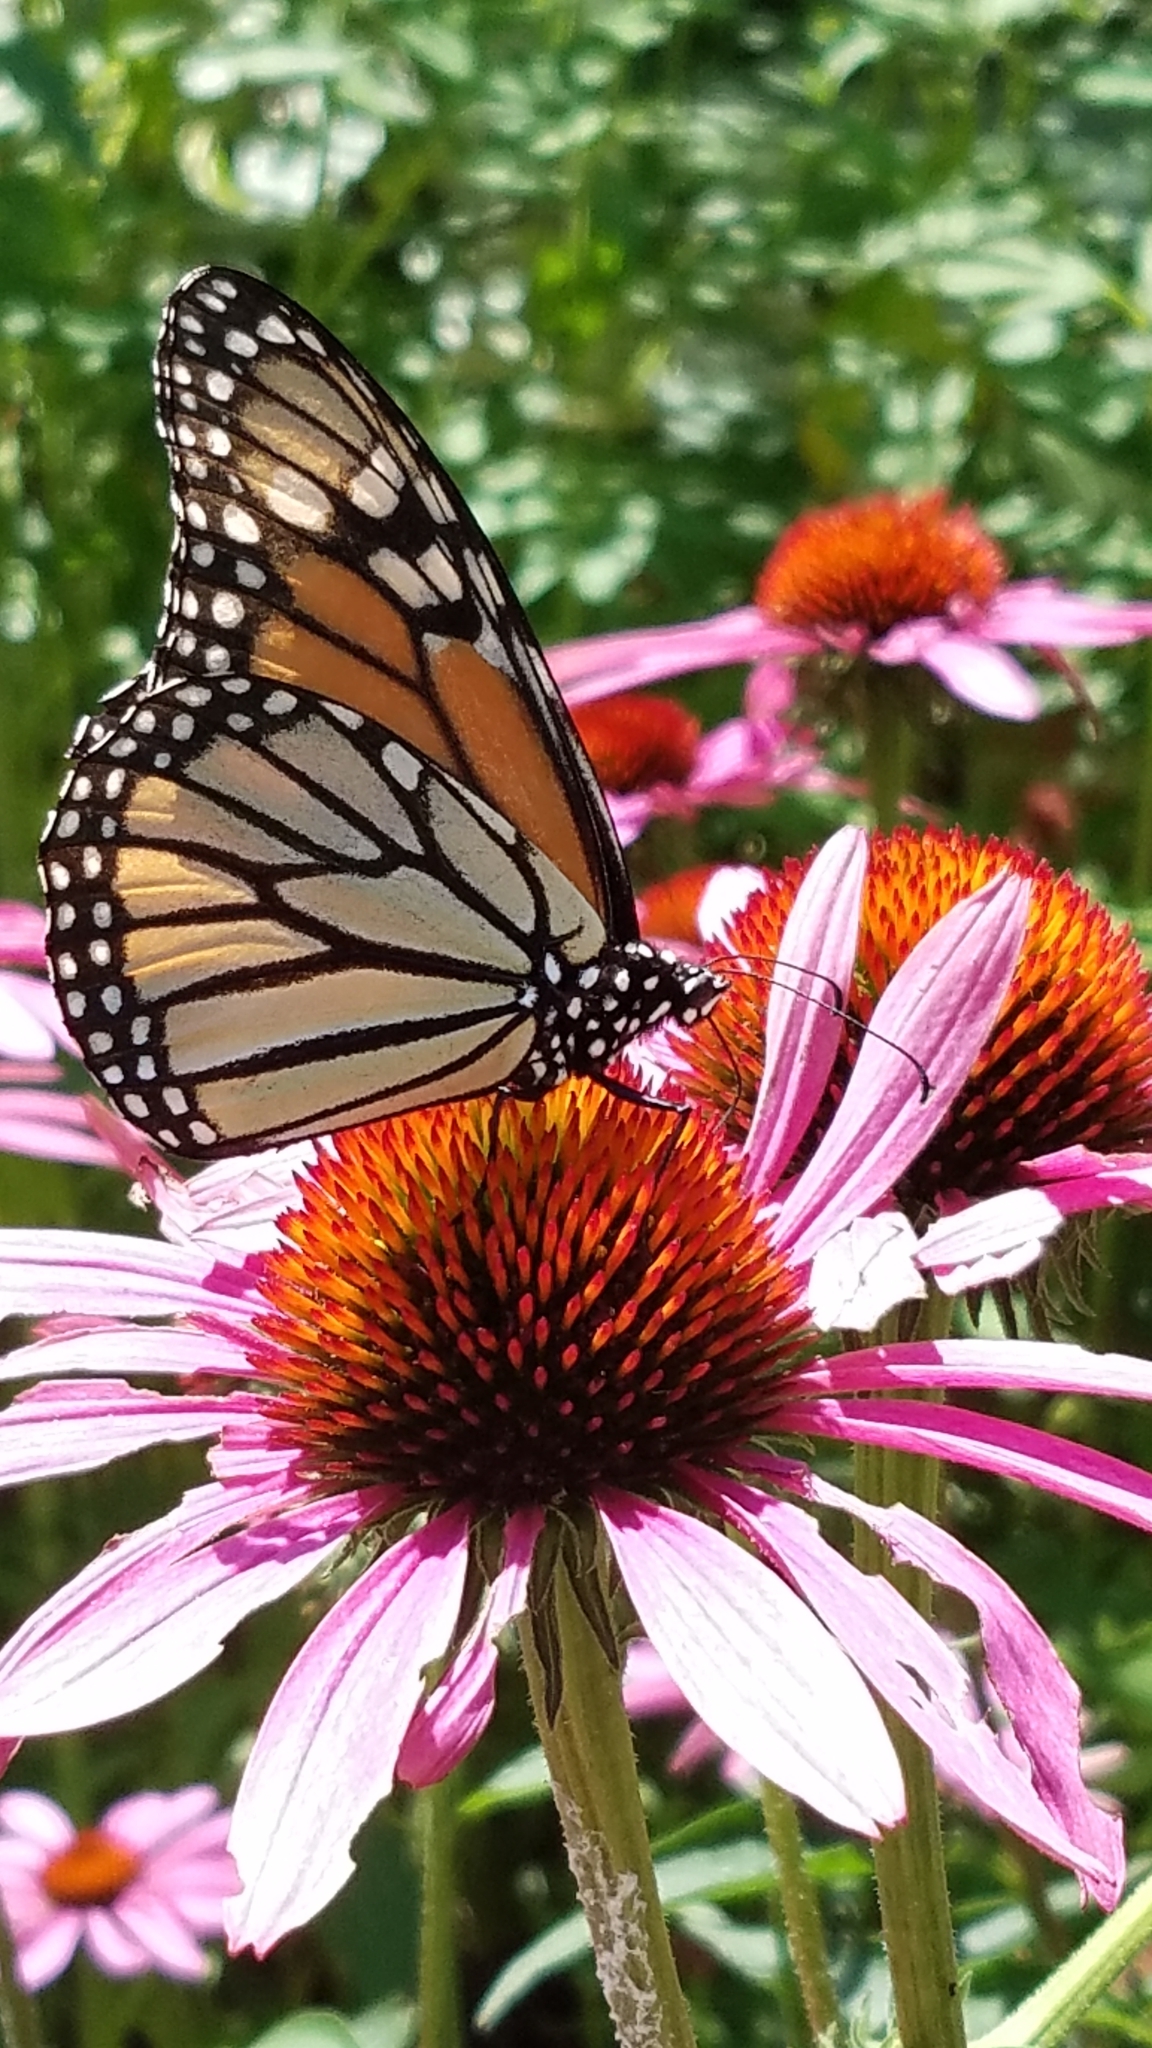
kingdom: Animalia
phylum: Arthropoda
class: Insecta
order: Lepidoptera
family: Nymphalidae
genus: Danaus
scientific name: Danaus plexippus
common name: Monarch
